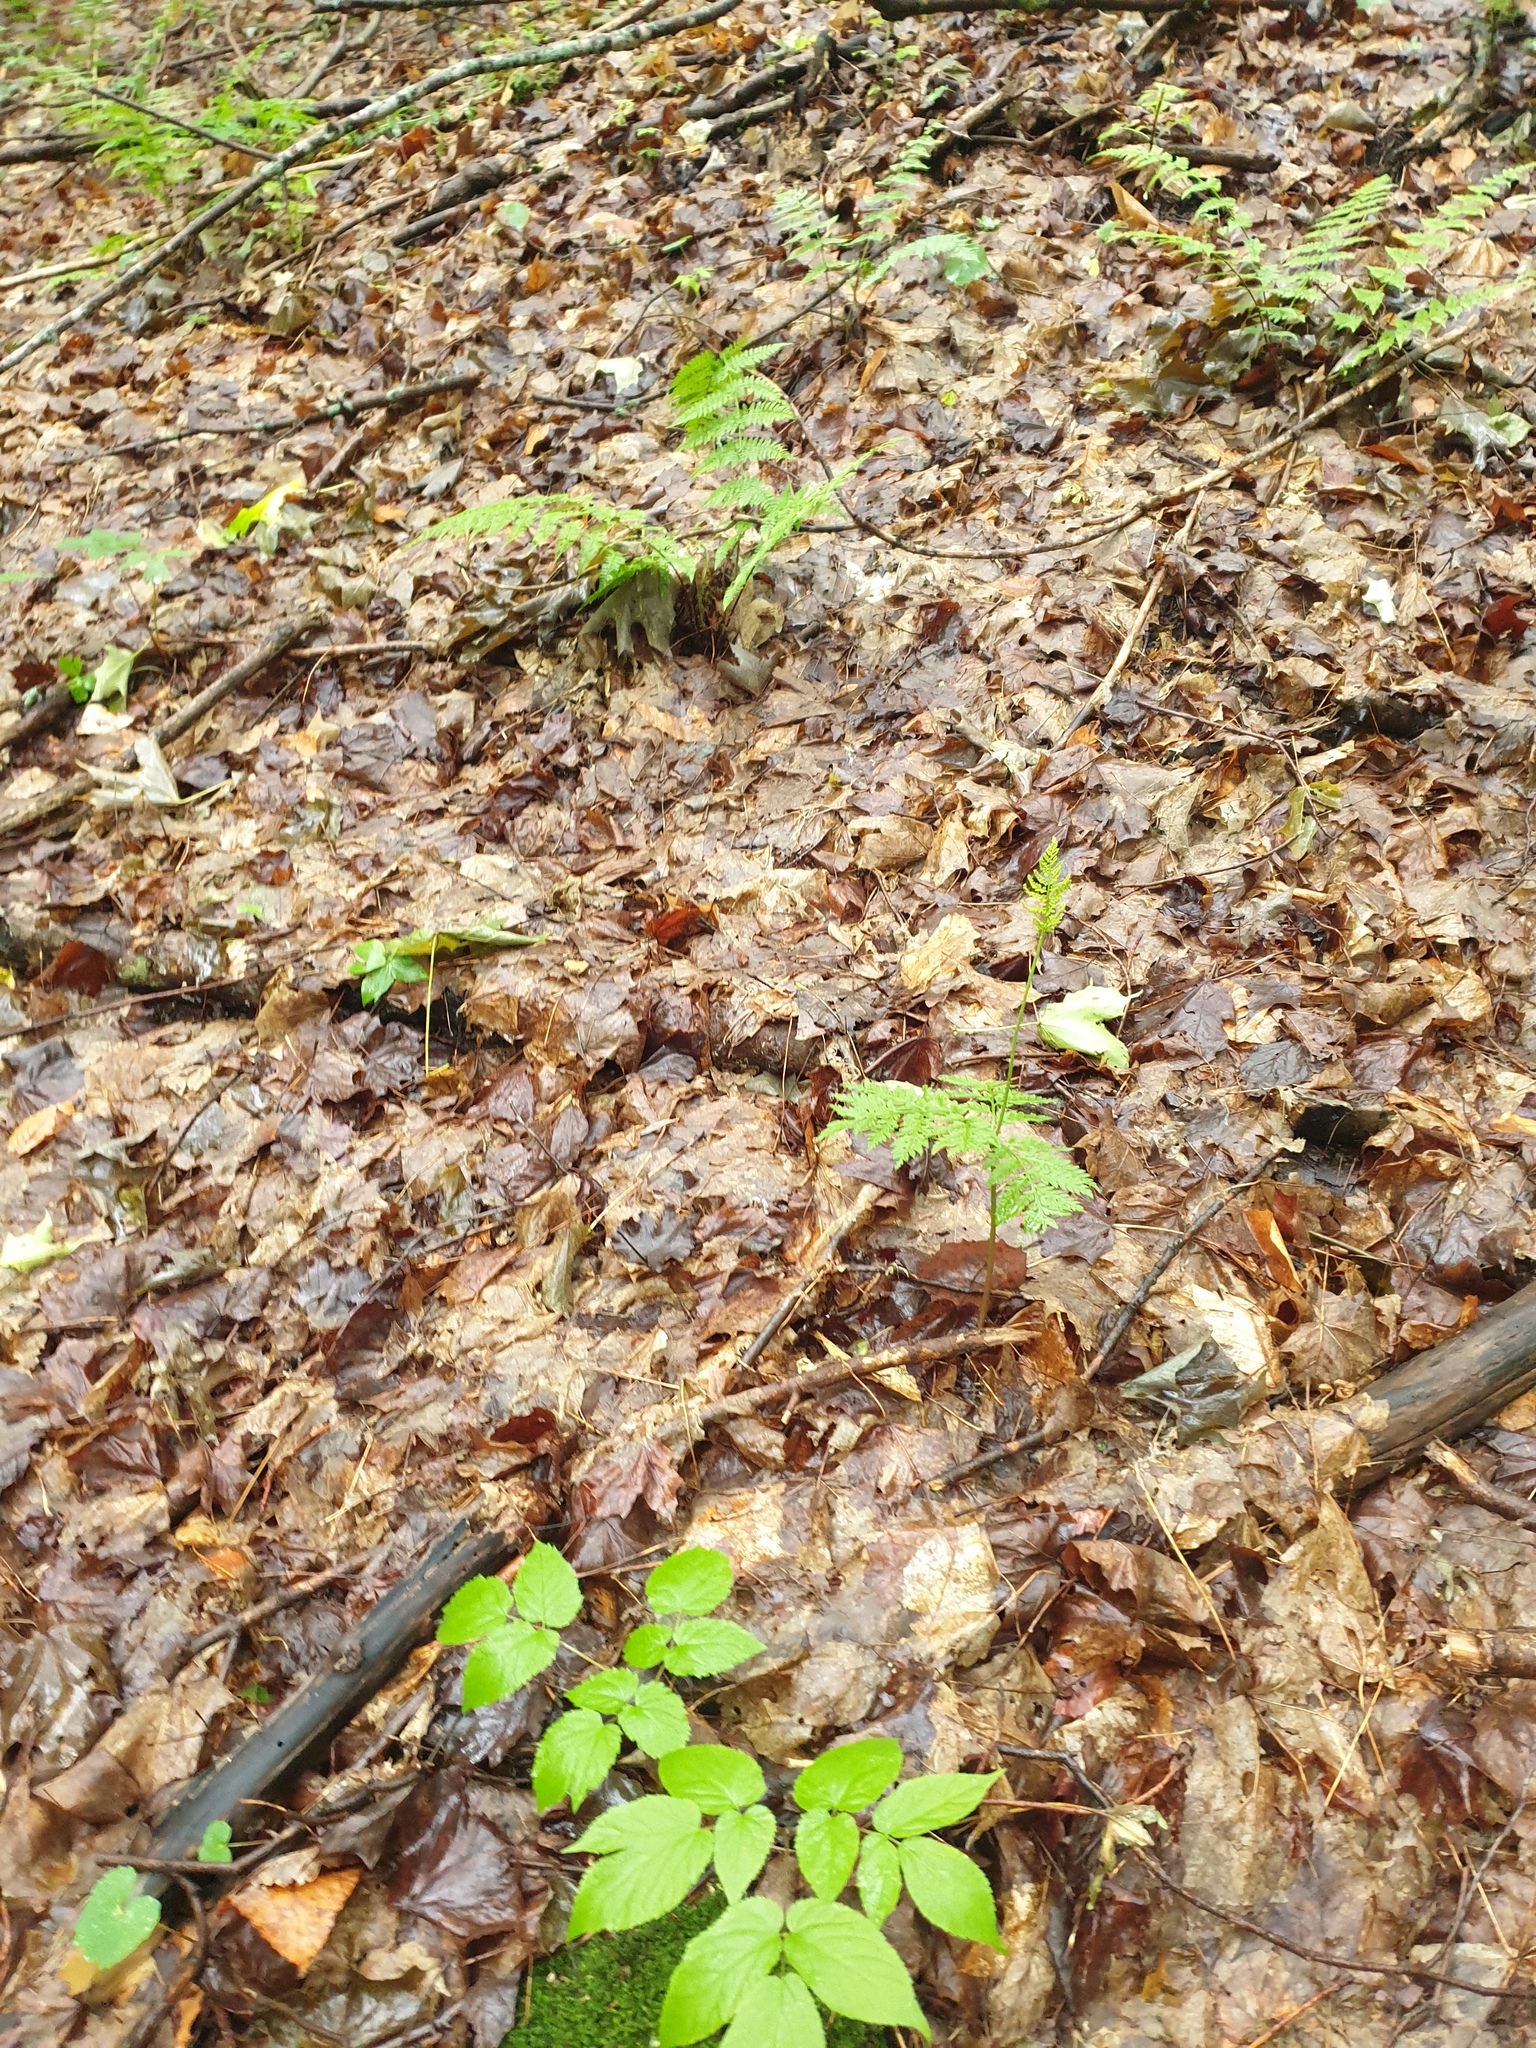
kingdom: Plantae
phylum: Tracheophyta
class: Polypodiopsida
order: Ophioglossales
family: Ophioglossaceae
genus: Botrypus
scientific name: Botrypus virginianus
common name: Common grapefern
